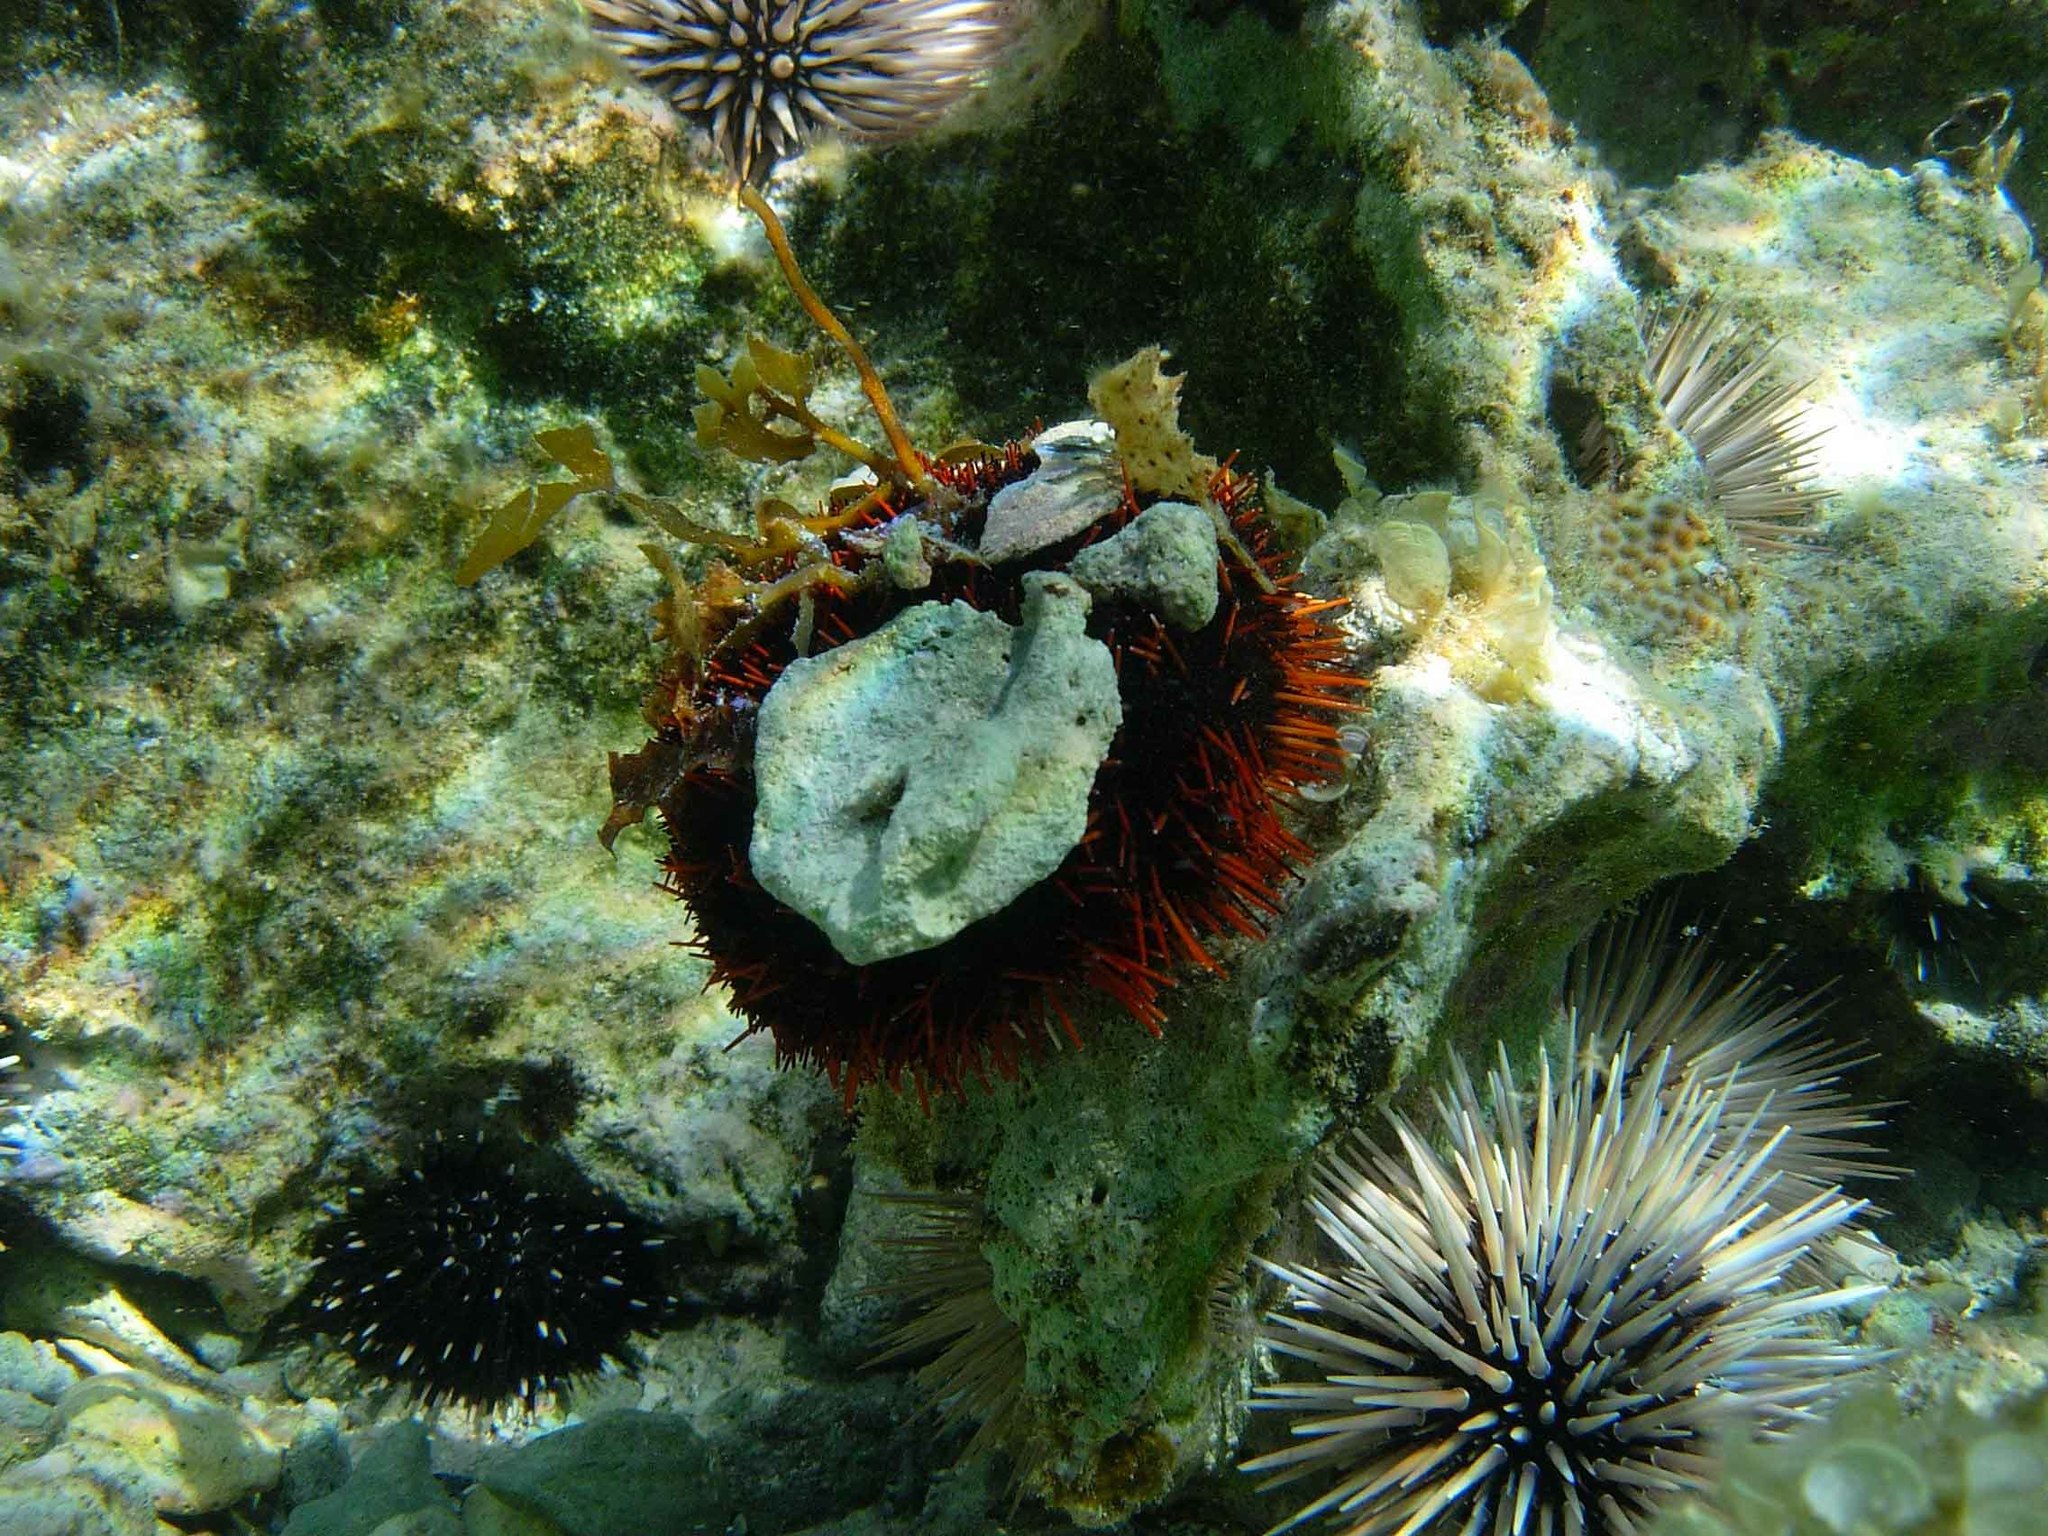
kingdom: Animalia
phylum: Echinodermata
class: Echinoidea
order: Camarodonta
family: Toxopneustidae
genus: Tripneustes
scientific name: Tripneustes gratilla
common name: Bischofsmützenseeigel
